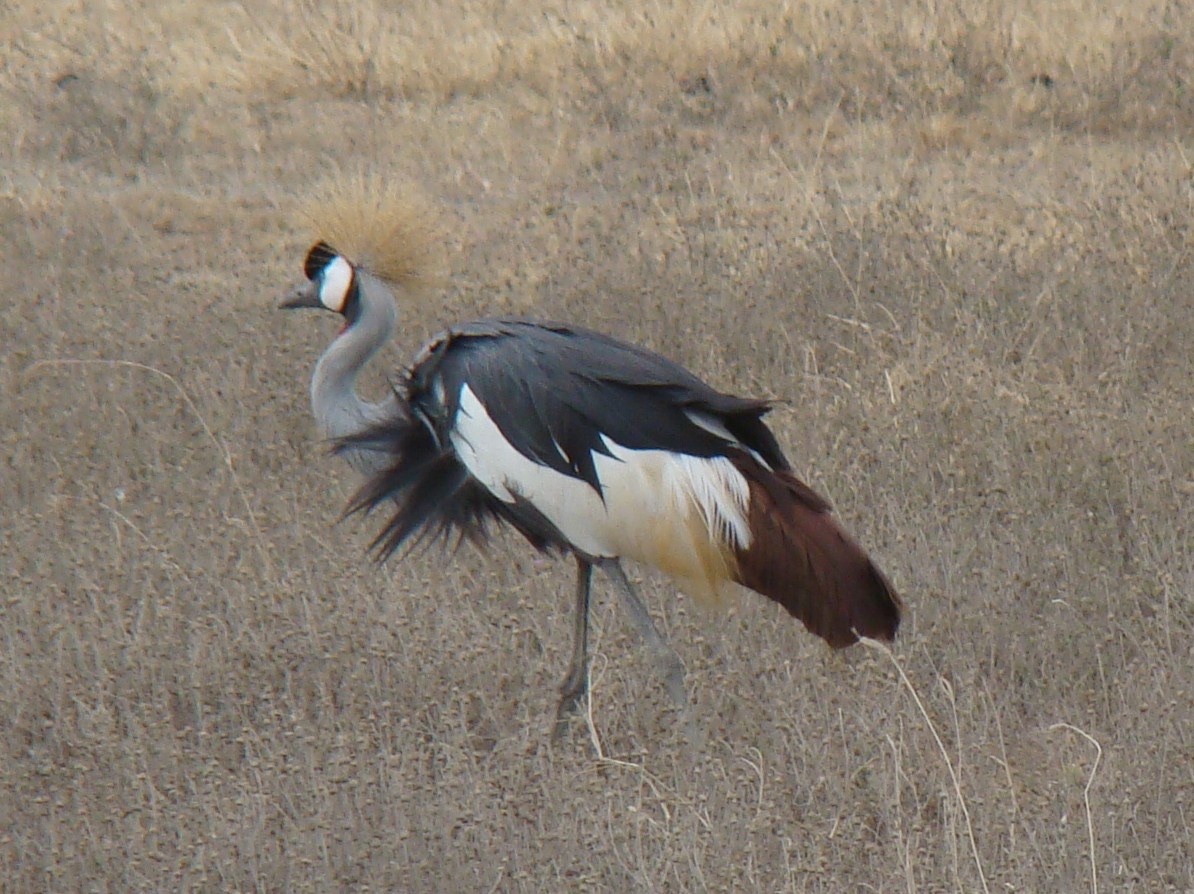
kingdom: Animalia
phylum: Chordata
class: Aves
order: Gruiformes
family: Gruidae
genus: Balearica
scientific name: Balearica regulorum
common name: Grey crowned crane
